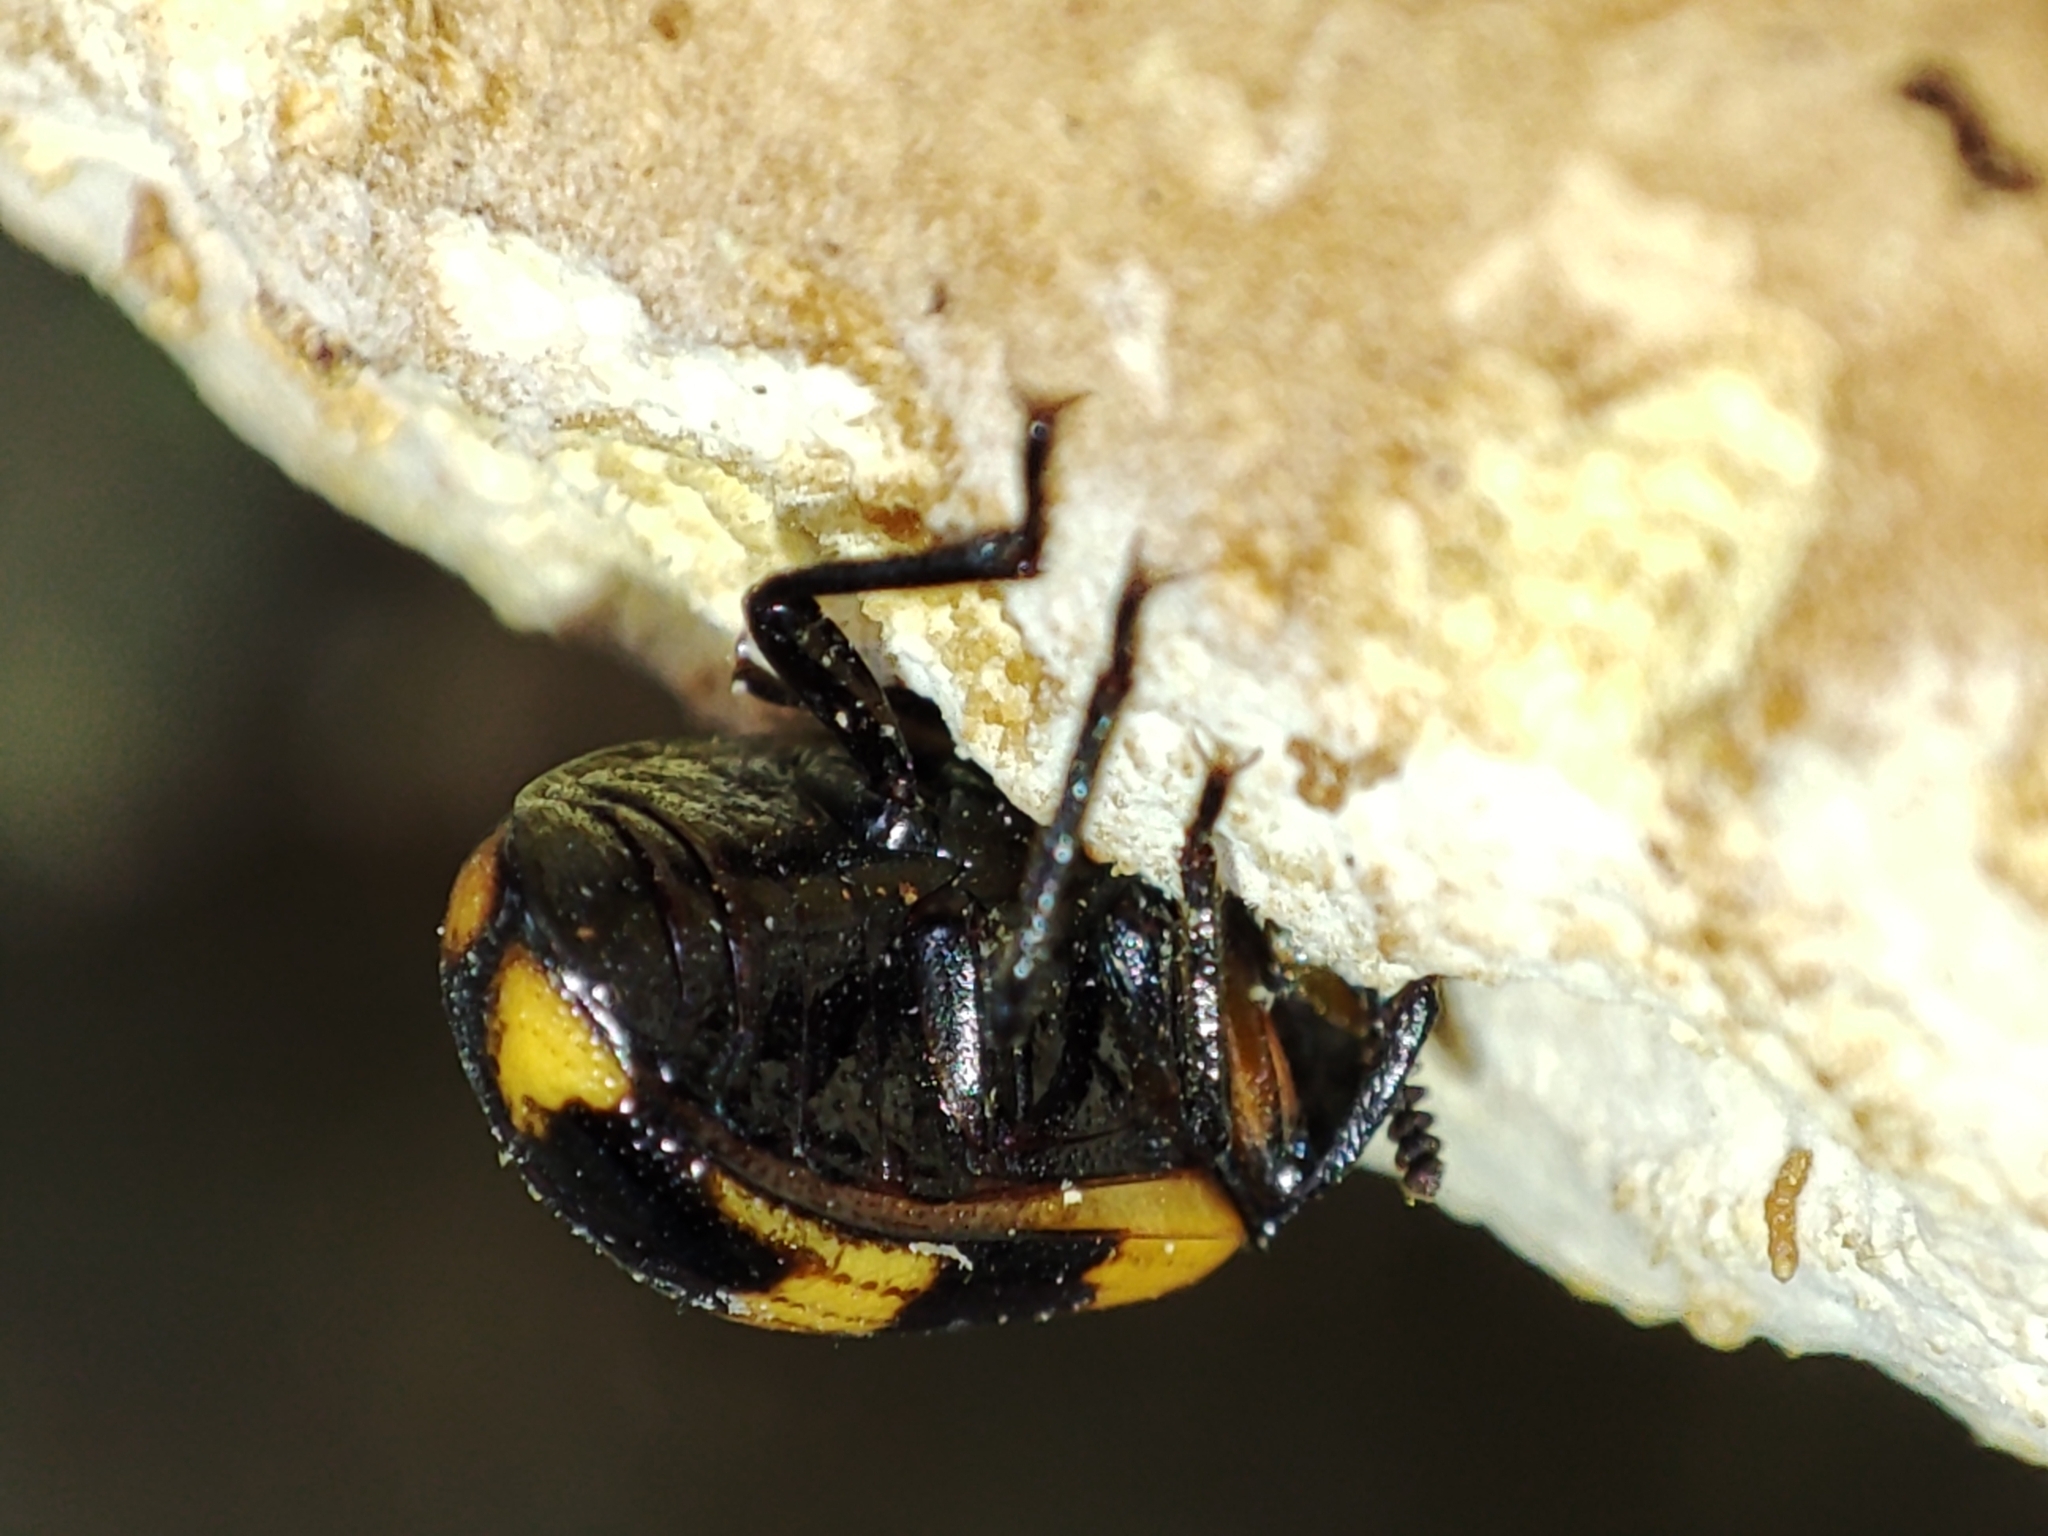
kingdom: Animalia
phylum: Arthropoda
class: Insecta
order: Coleoptera
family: Tenebrionidae
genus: Diaperis
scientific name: Diaperis boleti
